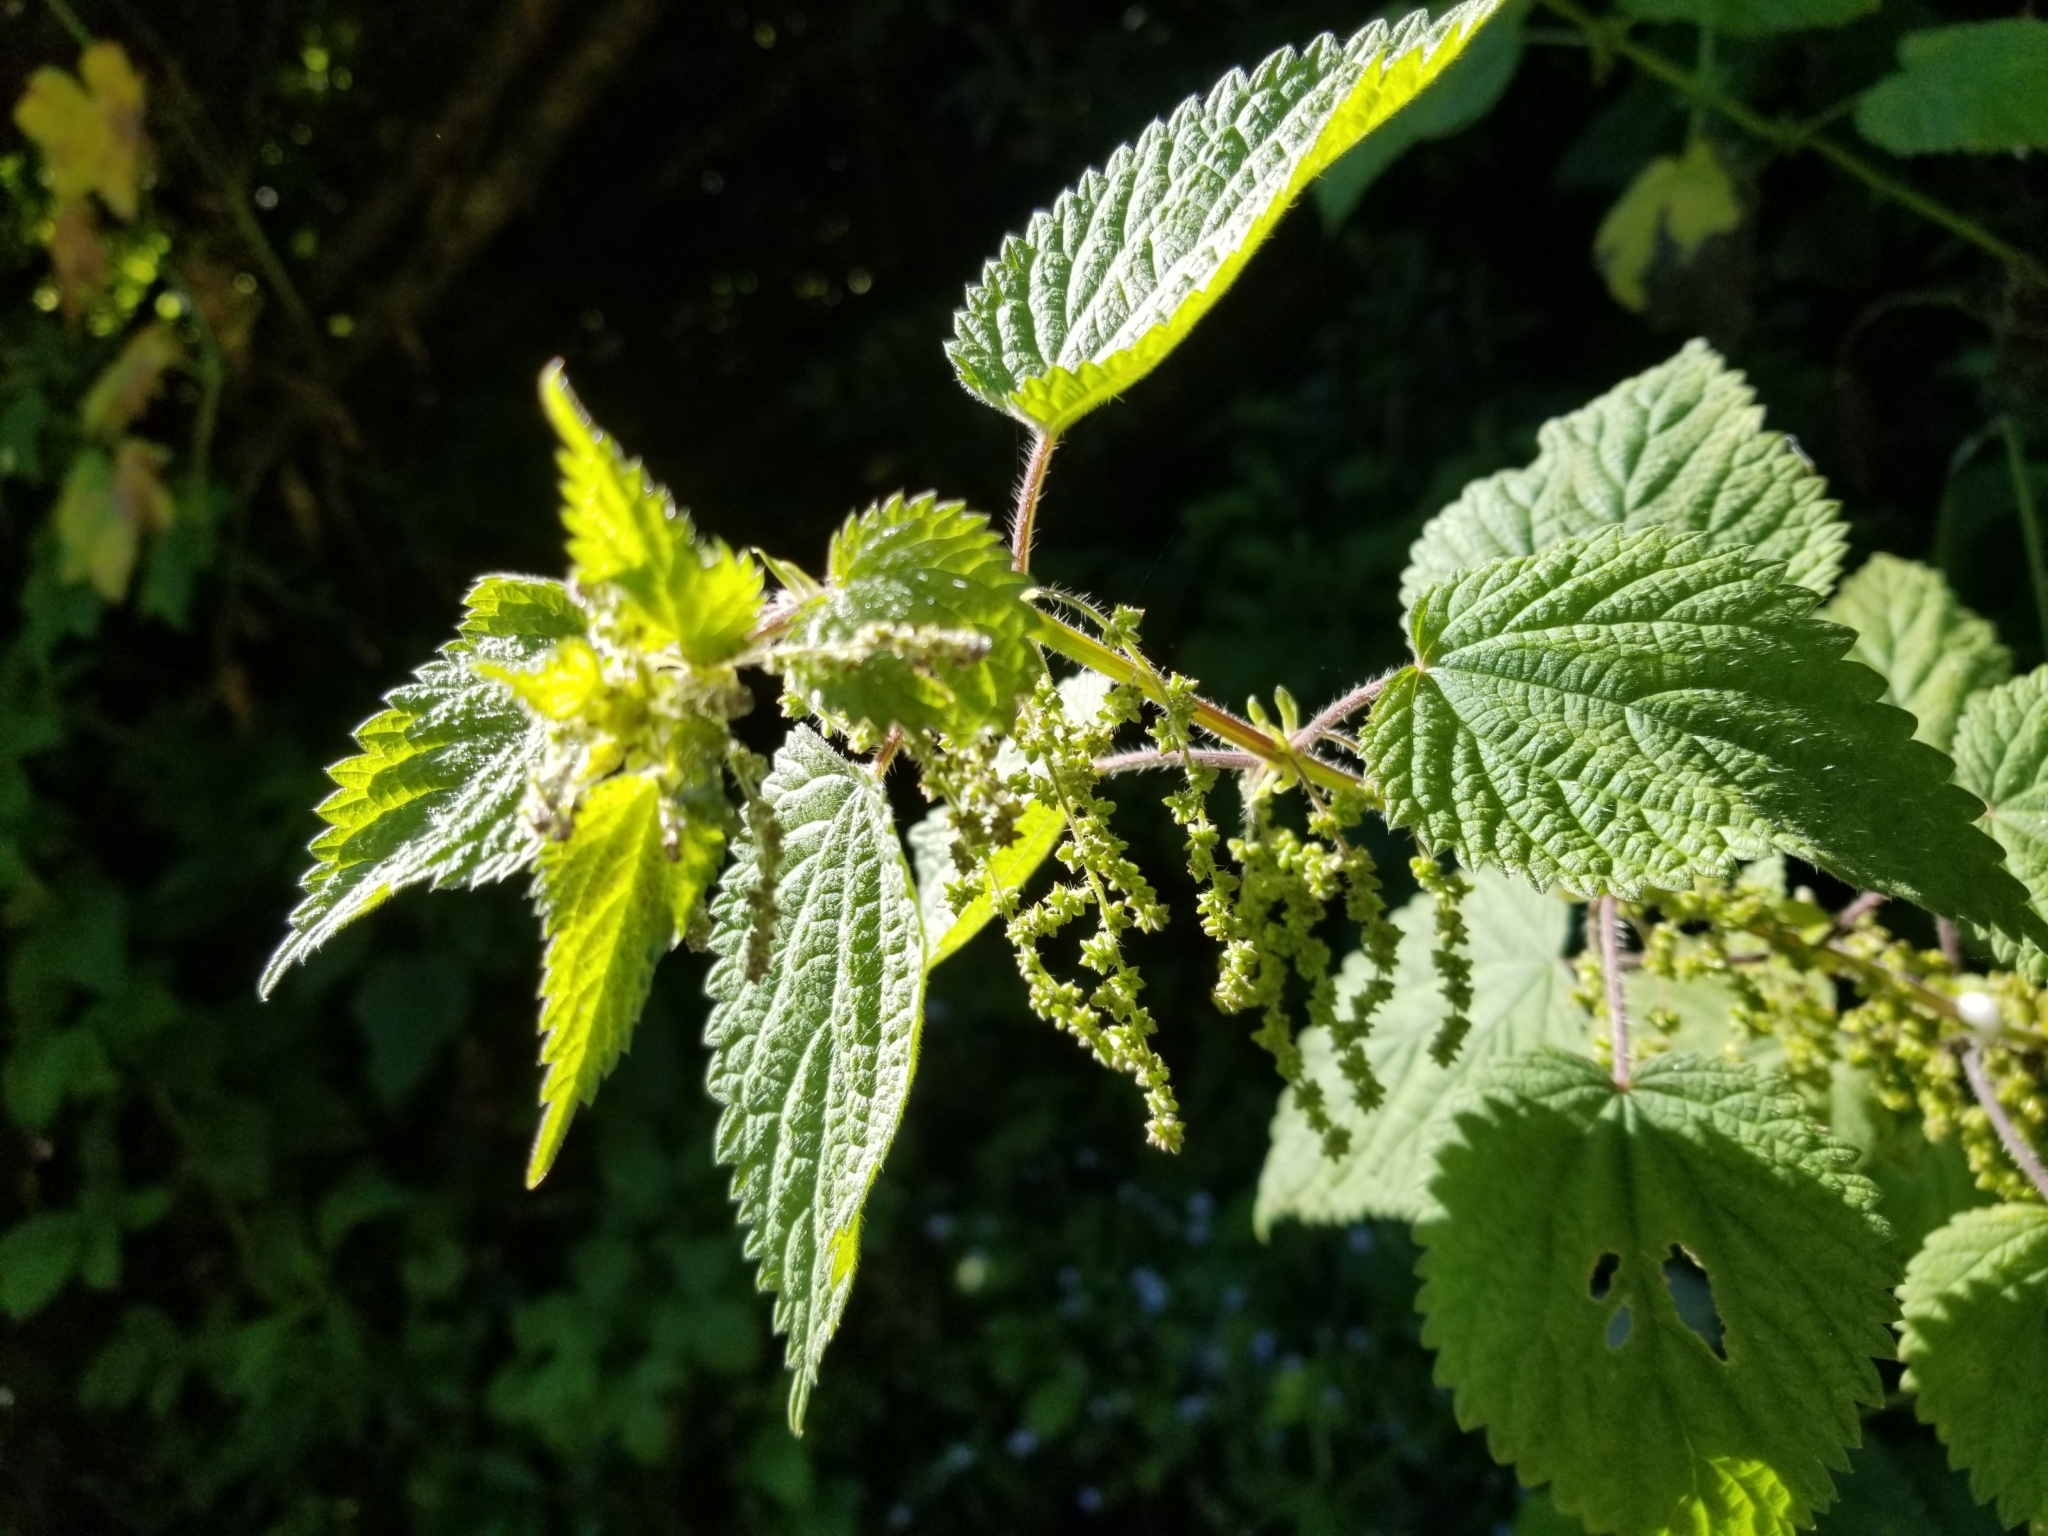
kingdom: Plantae
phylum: Tracheophyta
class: Magnoliopsida
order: Rosales
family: Urticaceae
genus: Urtica
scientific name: Urtica dioica
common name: Common nettle
